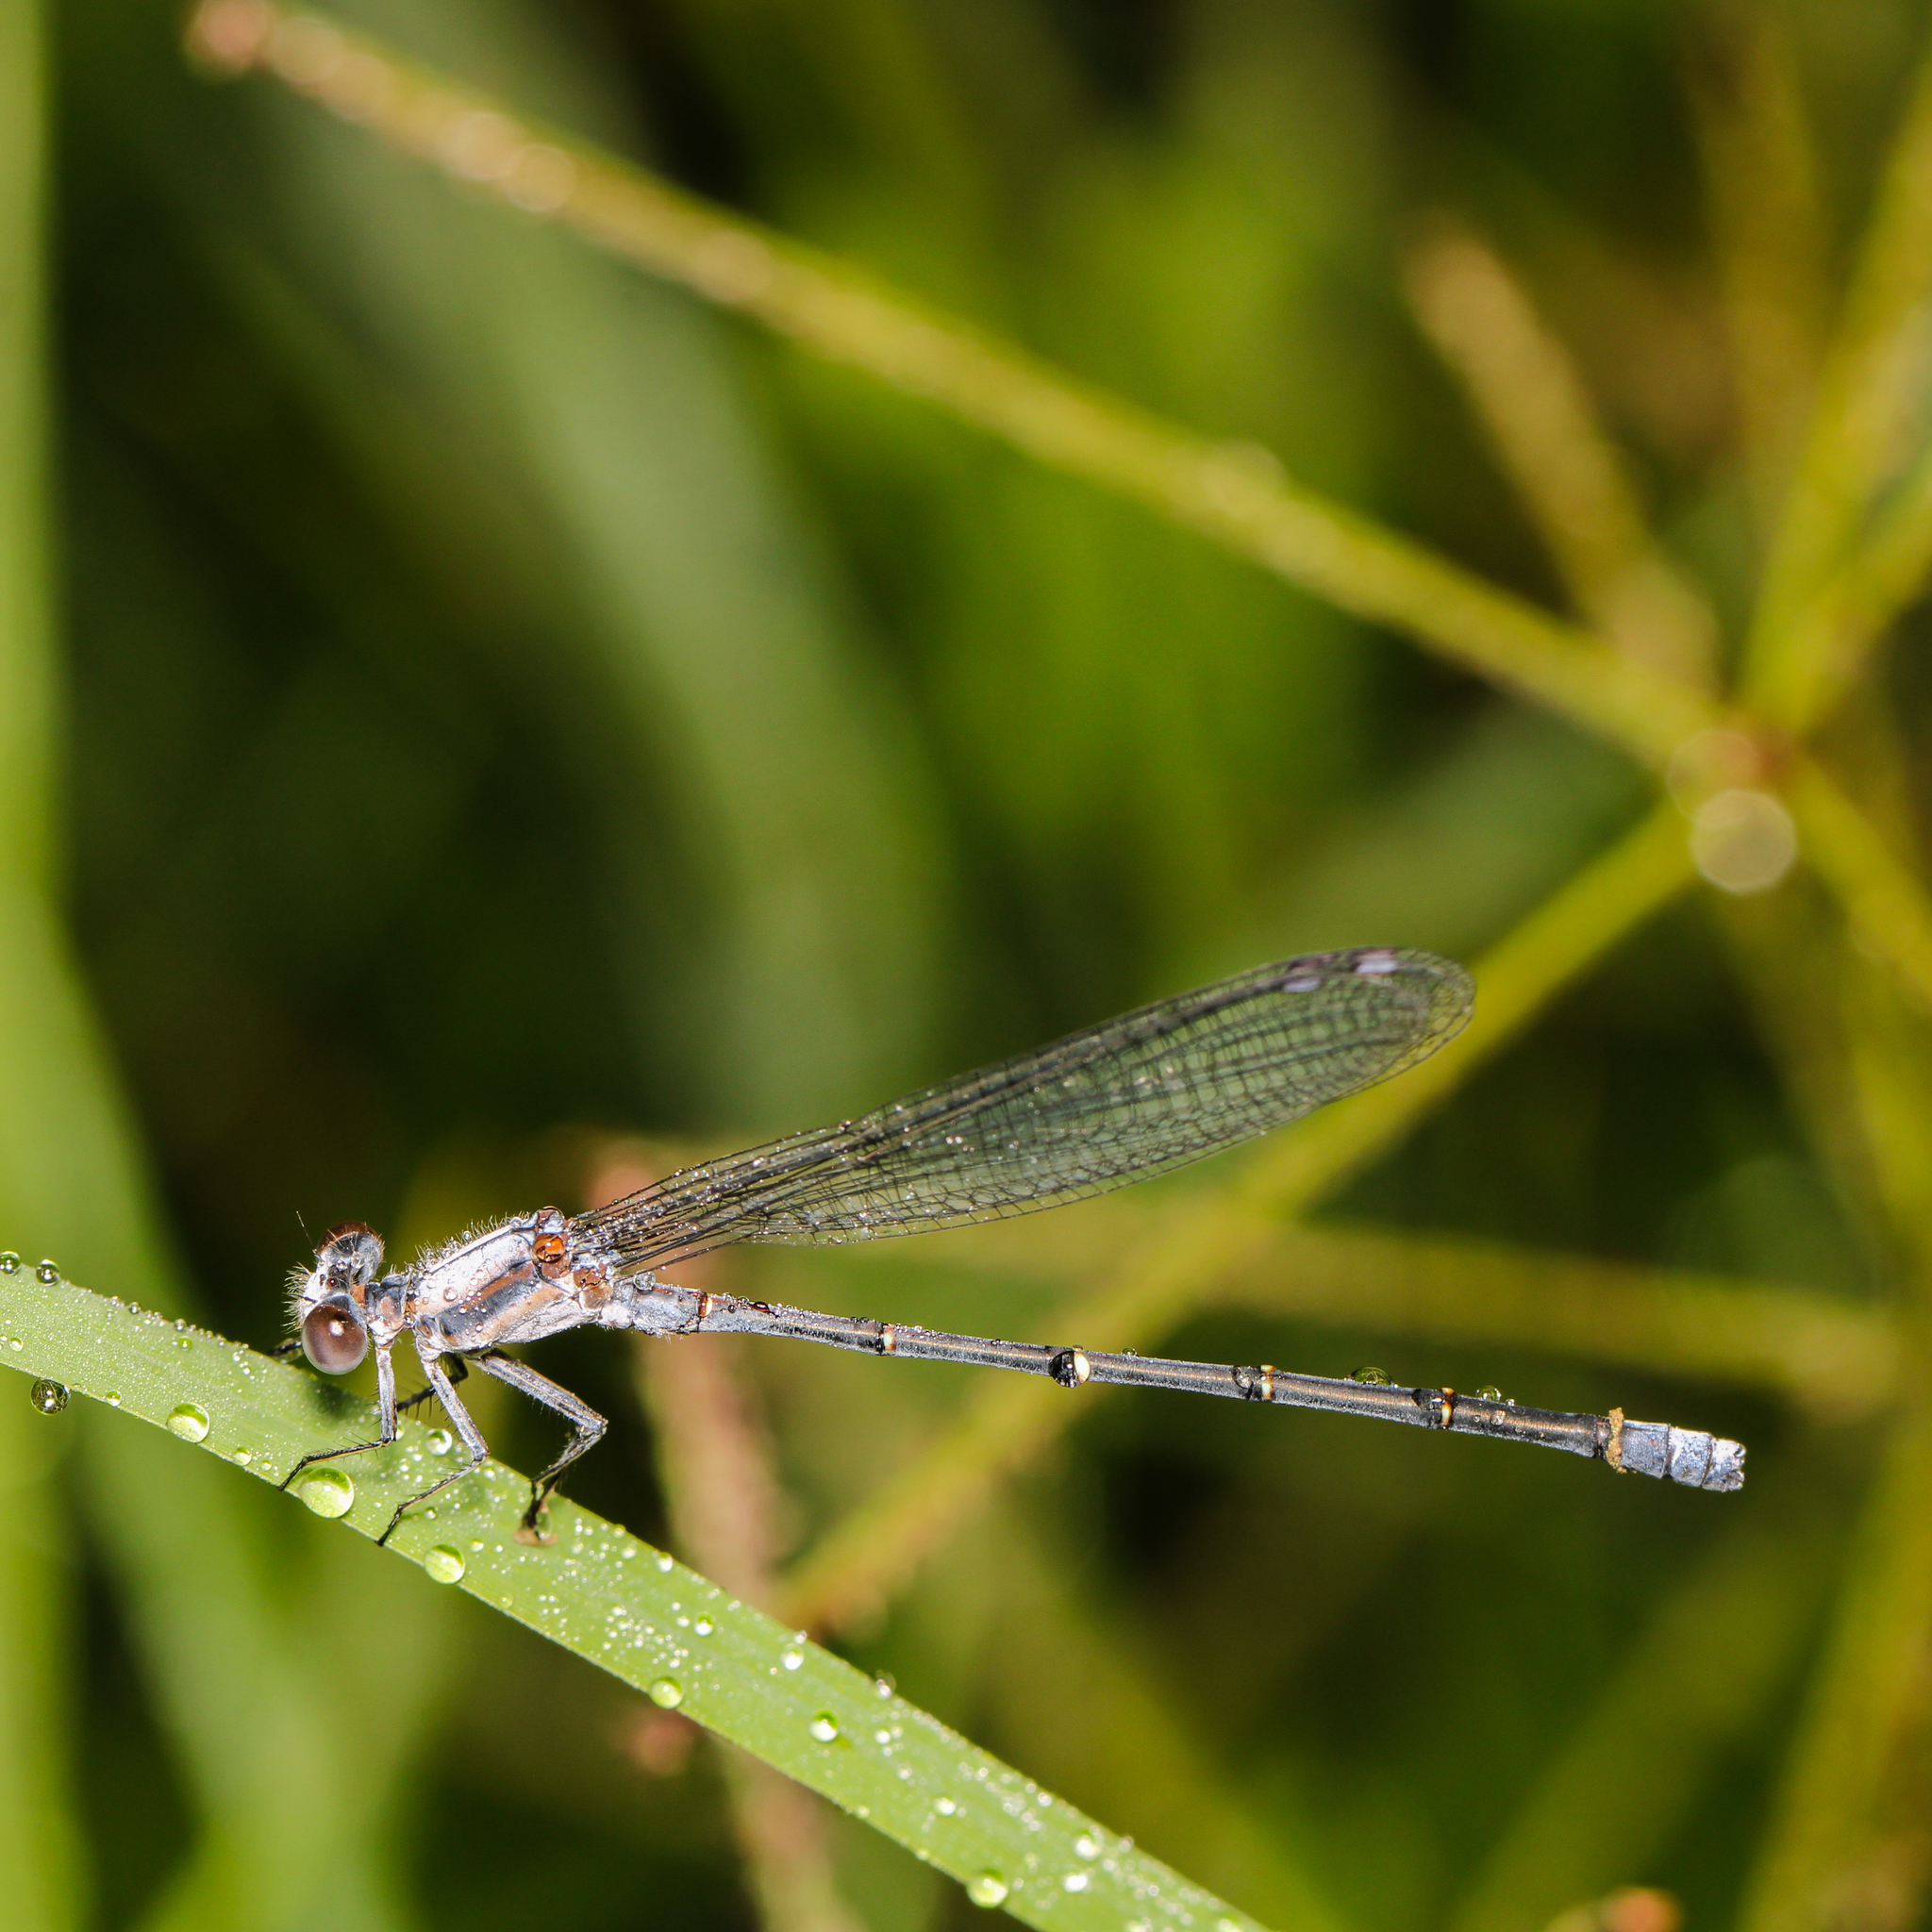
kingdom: Animalia
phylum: Arthropoda
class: Insecta
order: Odonata
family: Coenagrionidae
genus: Argia
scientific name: Argia moesta
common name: Powdered dancer
